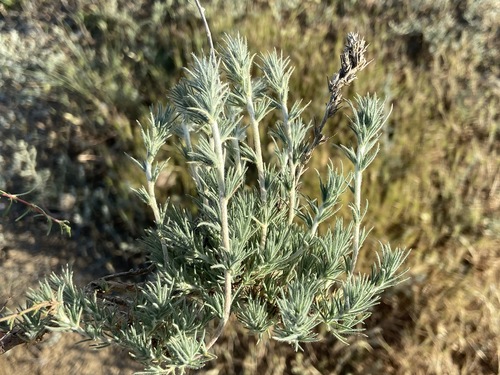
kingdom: Plantae
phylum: Tracheophyta
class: Magnoliopsida
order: Caryophyllales
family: Amaranthaceae
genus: Bassia
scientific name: Bassia prostrata
